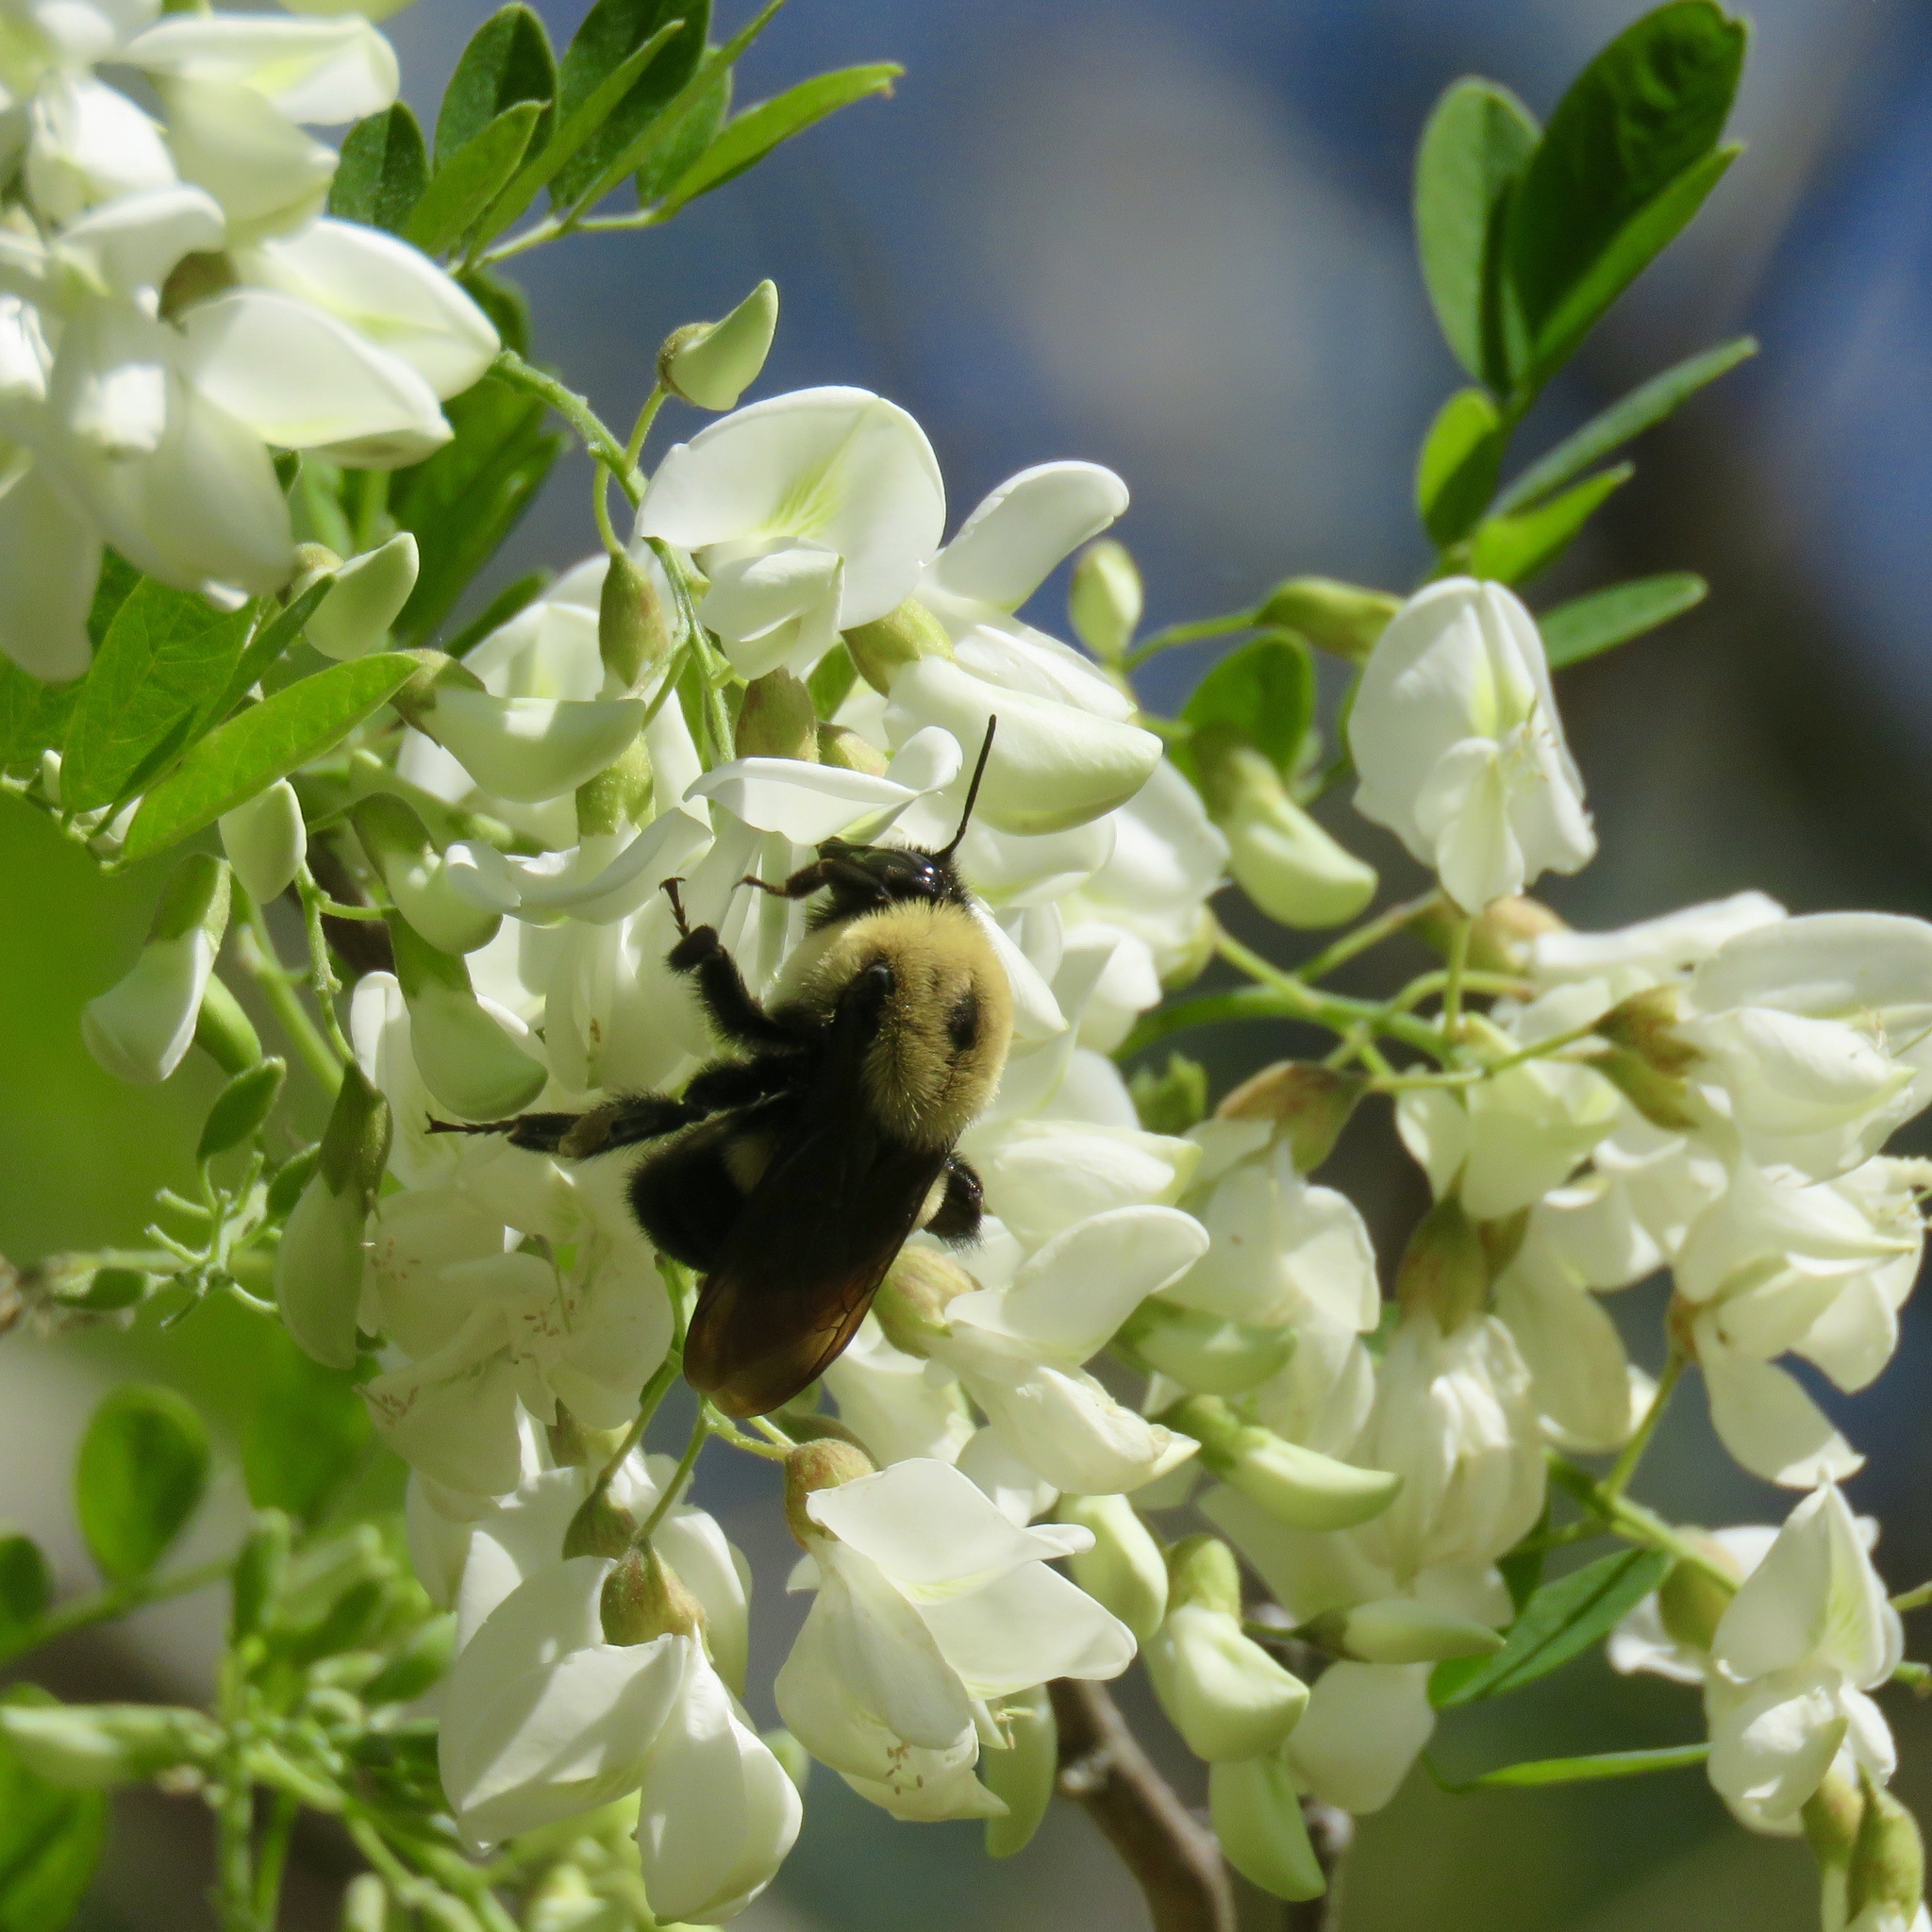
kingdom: Animalia
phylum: Arthropoda
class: Insecta
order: Hymenoptera
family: Apidae
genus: Bombus
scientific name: Bombus griseocollis
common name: Brown-belted bumble bee
